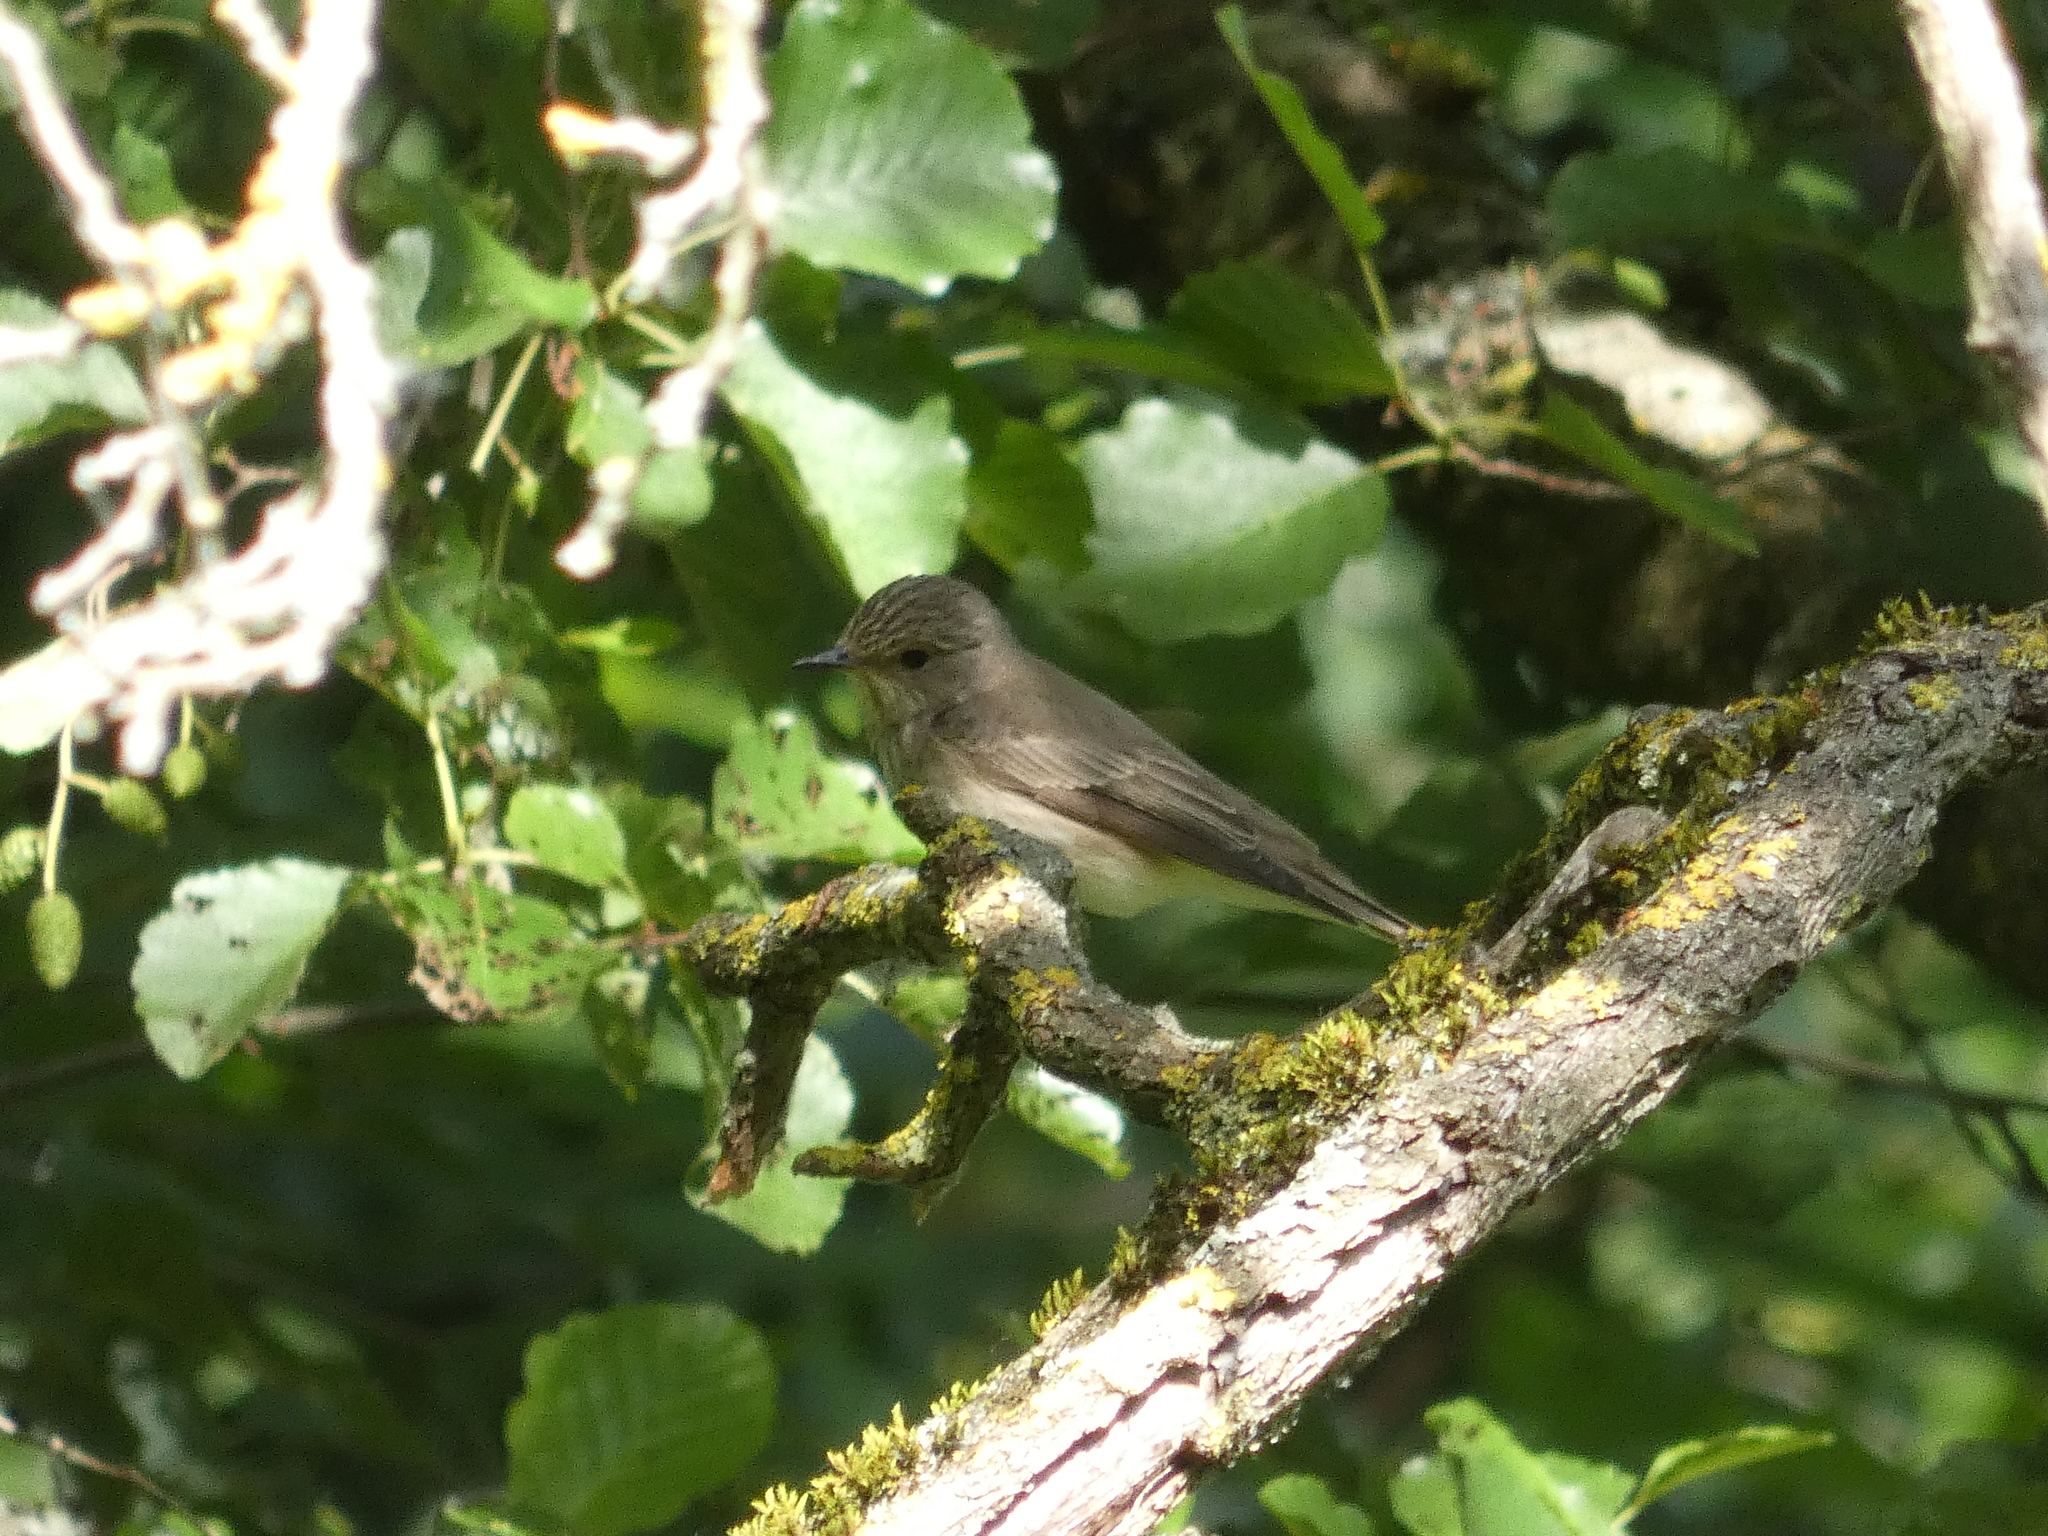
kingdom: Animalia
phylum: Chordata
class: Aves
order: Passeriformes
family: Muscicapidae
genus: Muscicapa
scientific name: Muscicapa striata
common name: Spotted flycatcher
